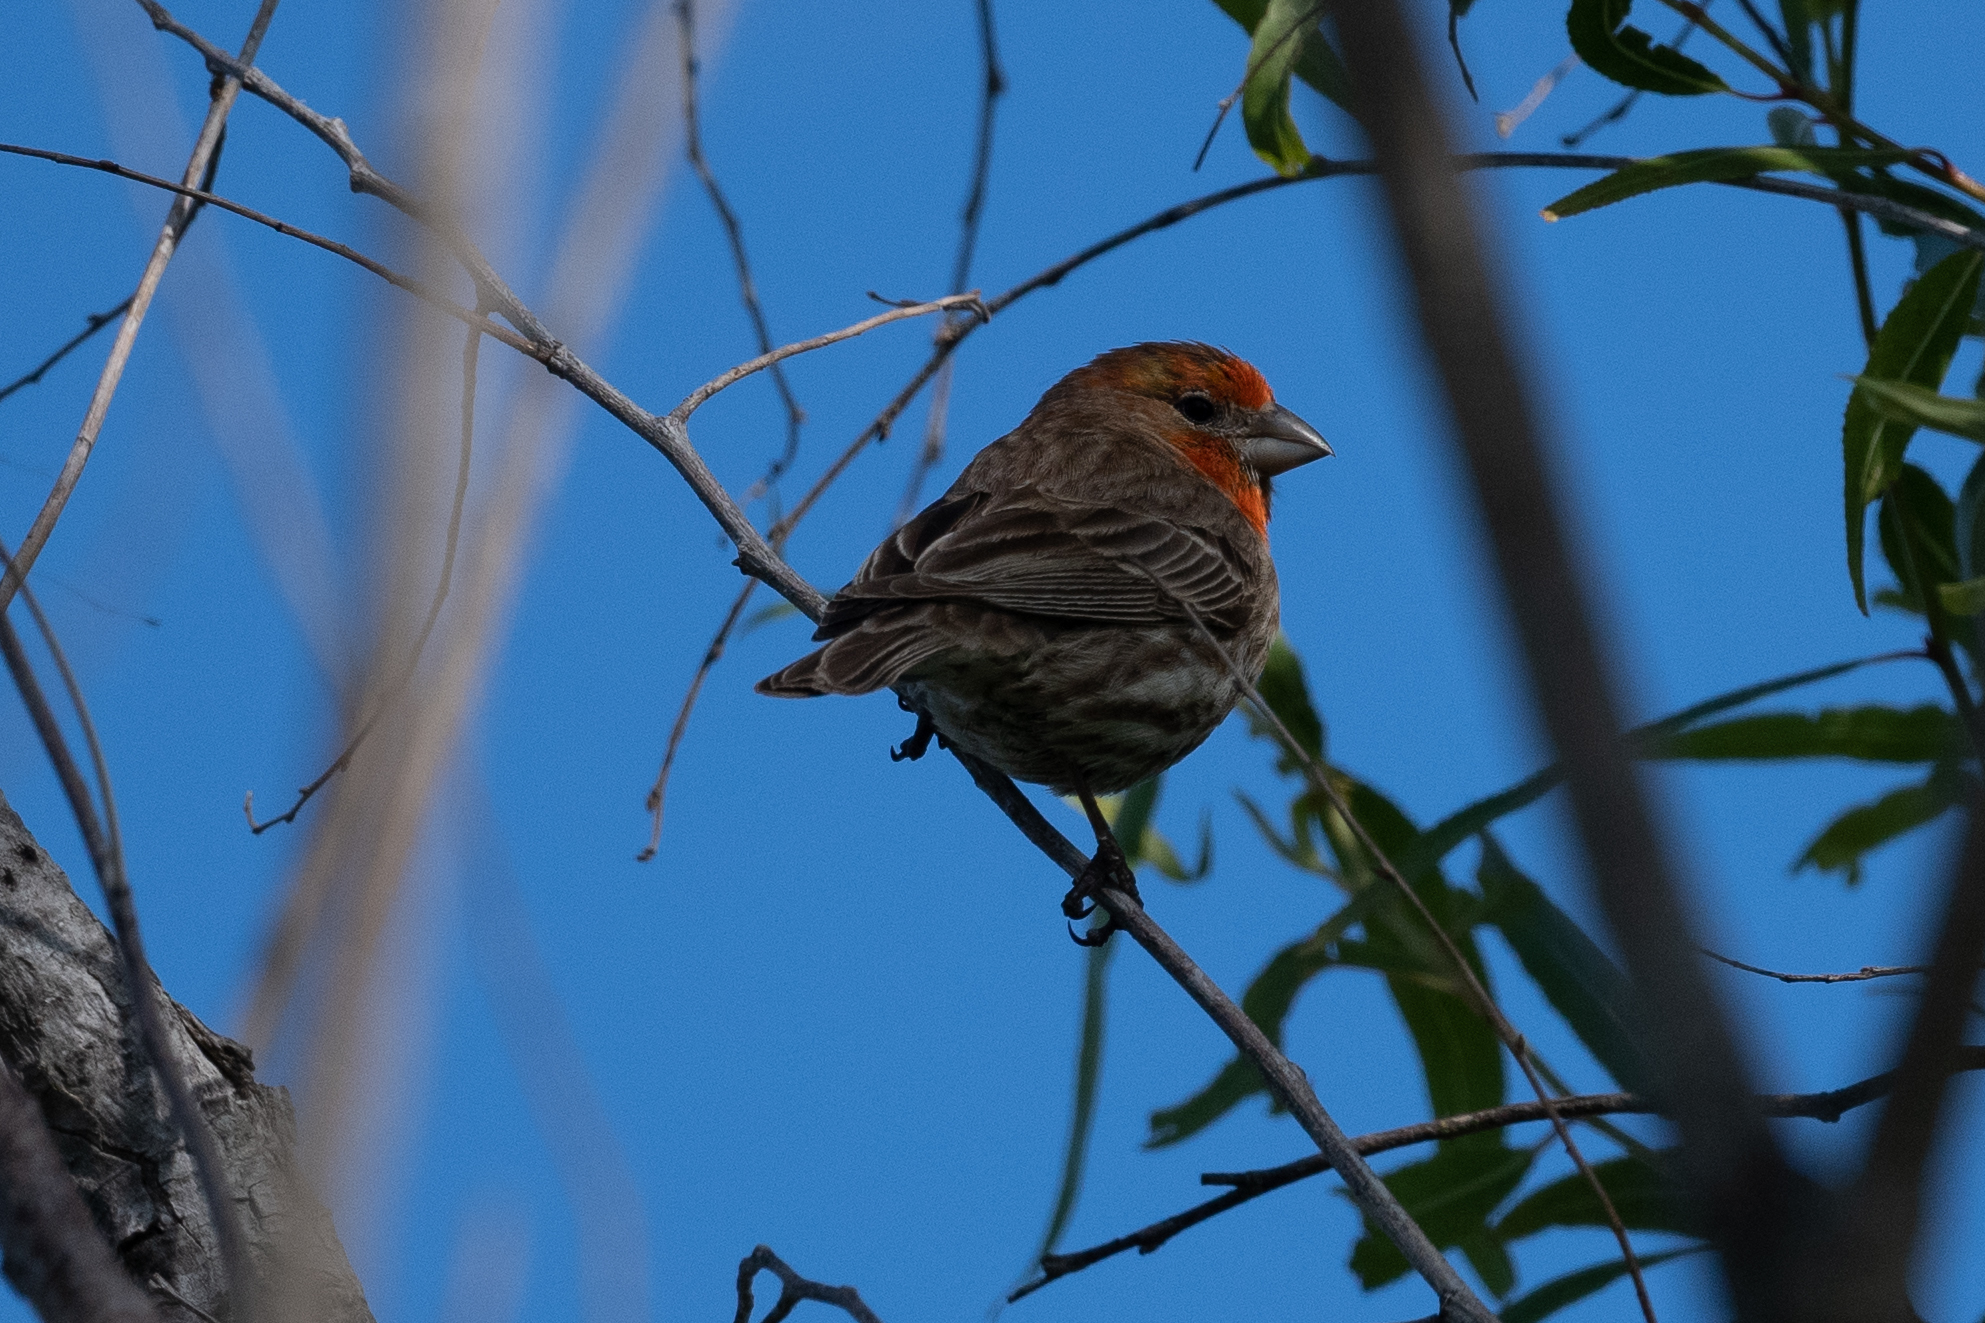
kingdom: Animalia
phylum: Chordata
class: Aves
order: Passeriformes
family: Fringillidae
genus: Haemorhous
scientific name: Haemorhous mexicanus
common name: House finch
